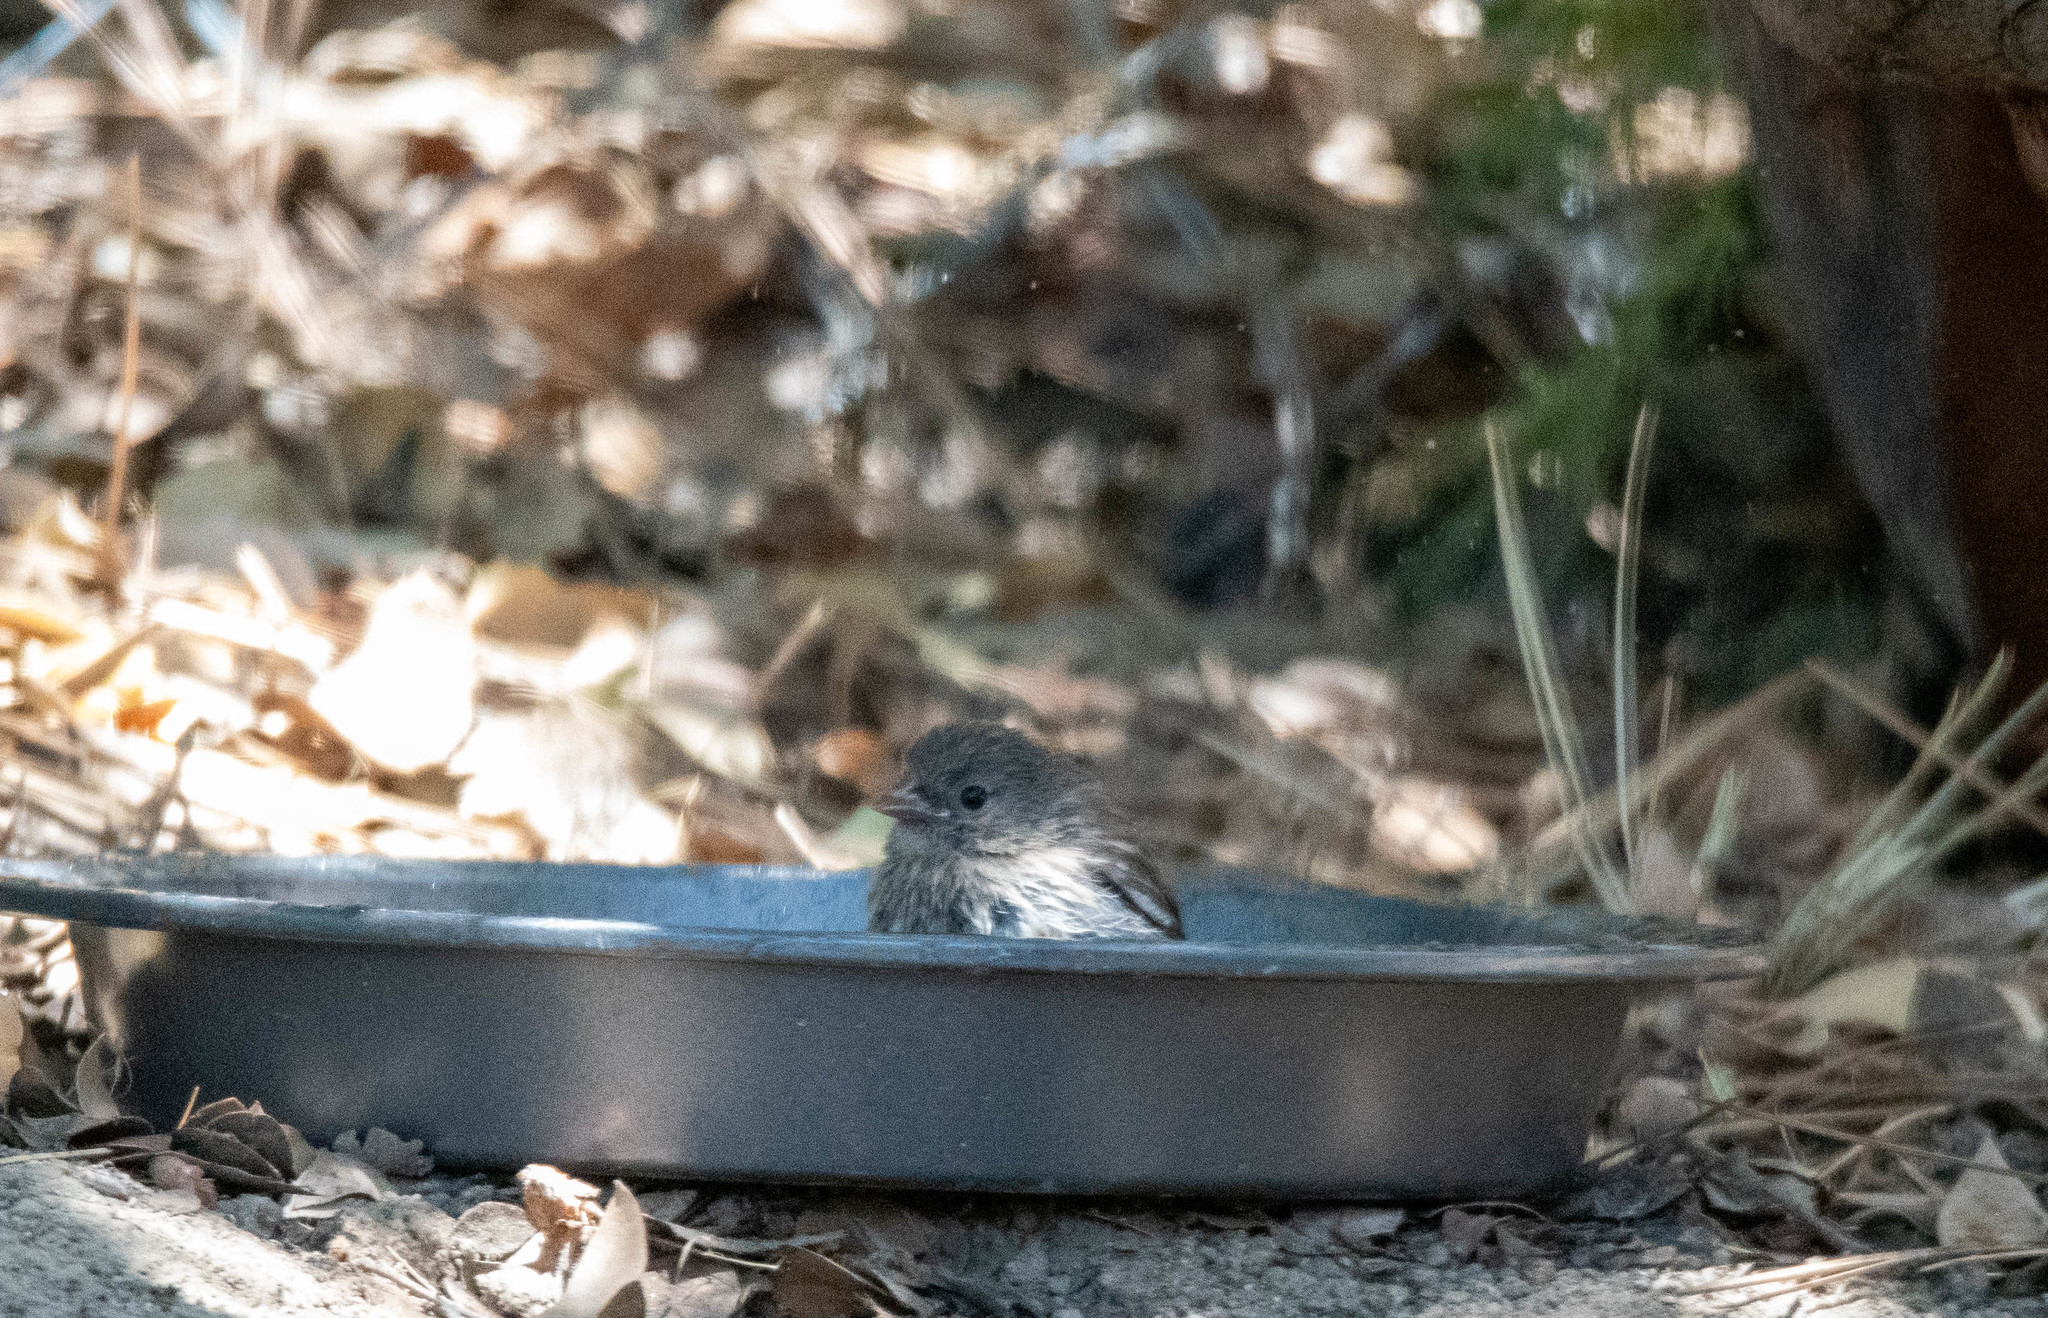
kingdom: Animalia
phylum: Chordata
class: Aves
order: Passeriformes
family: Passerellidae
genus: Junco
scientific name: Junco hyemalis
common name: Dark-eyed junco
